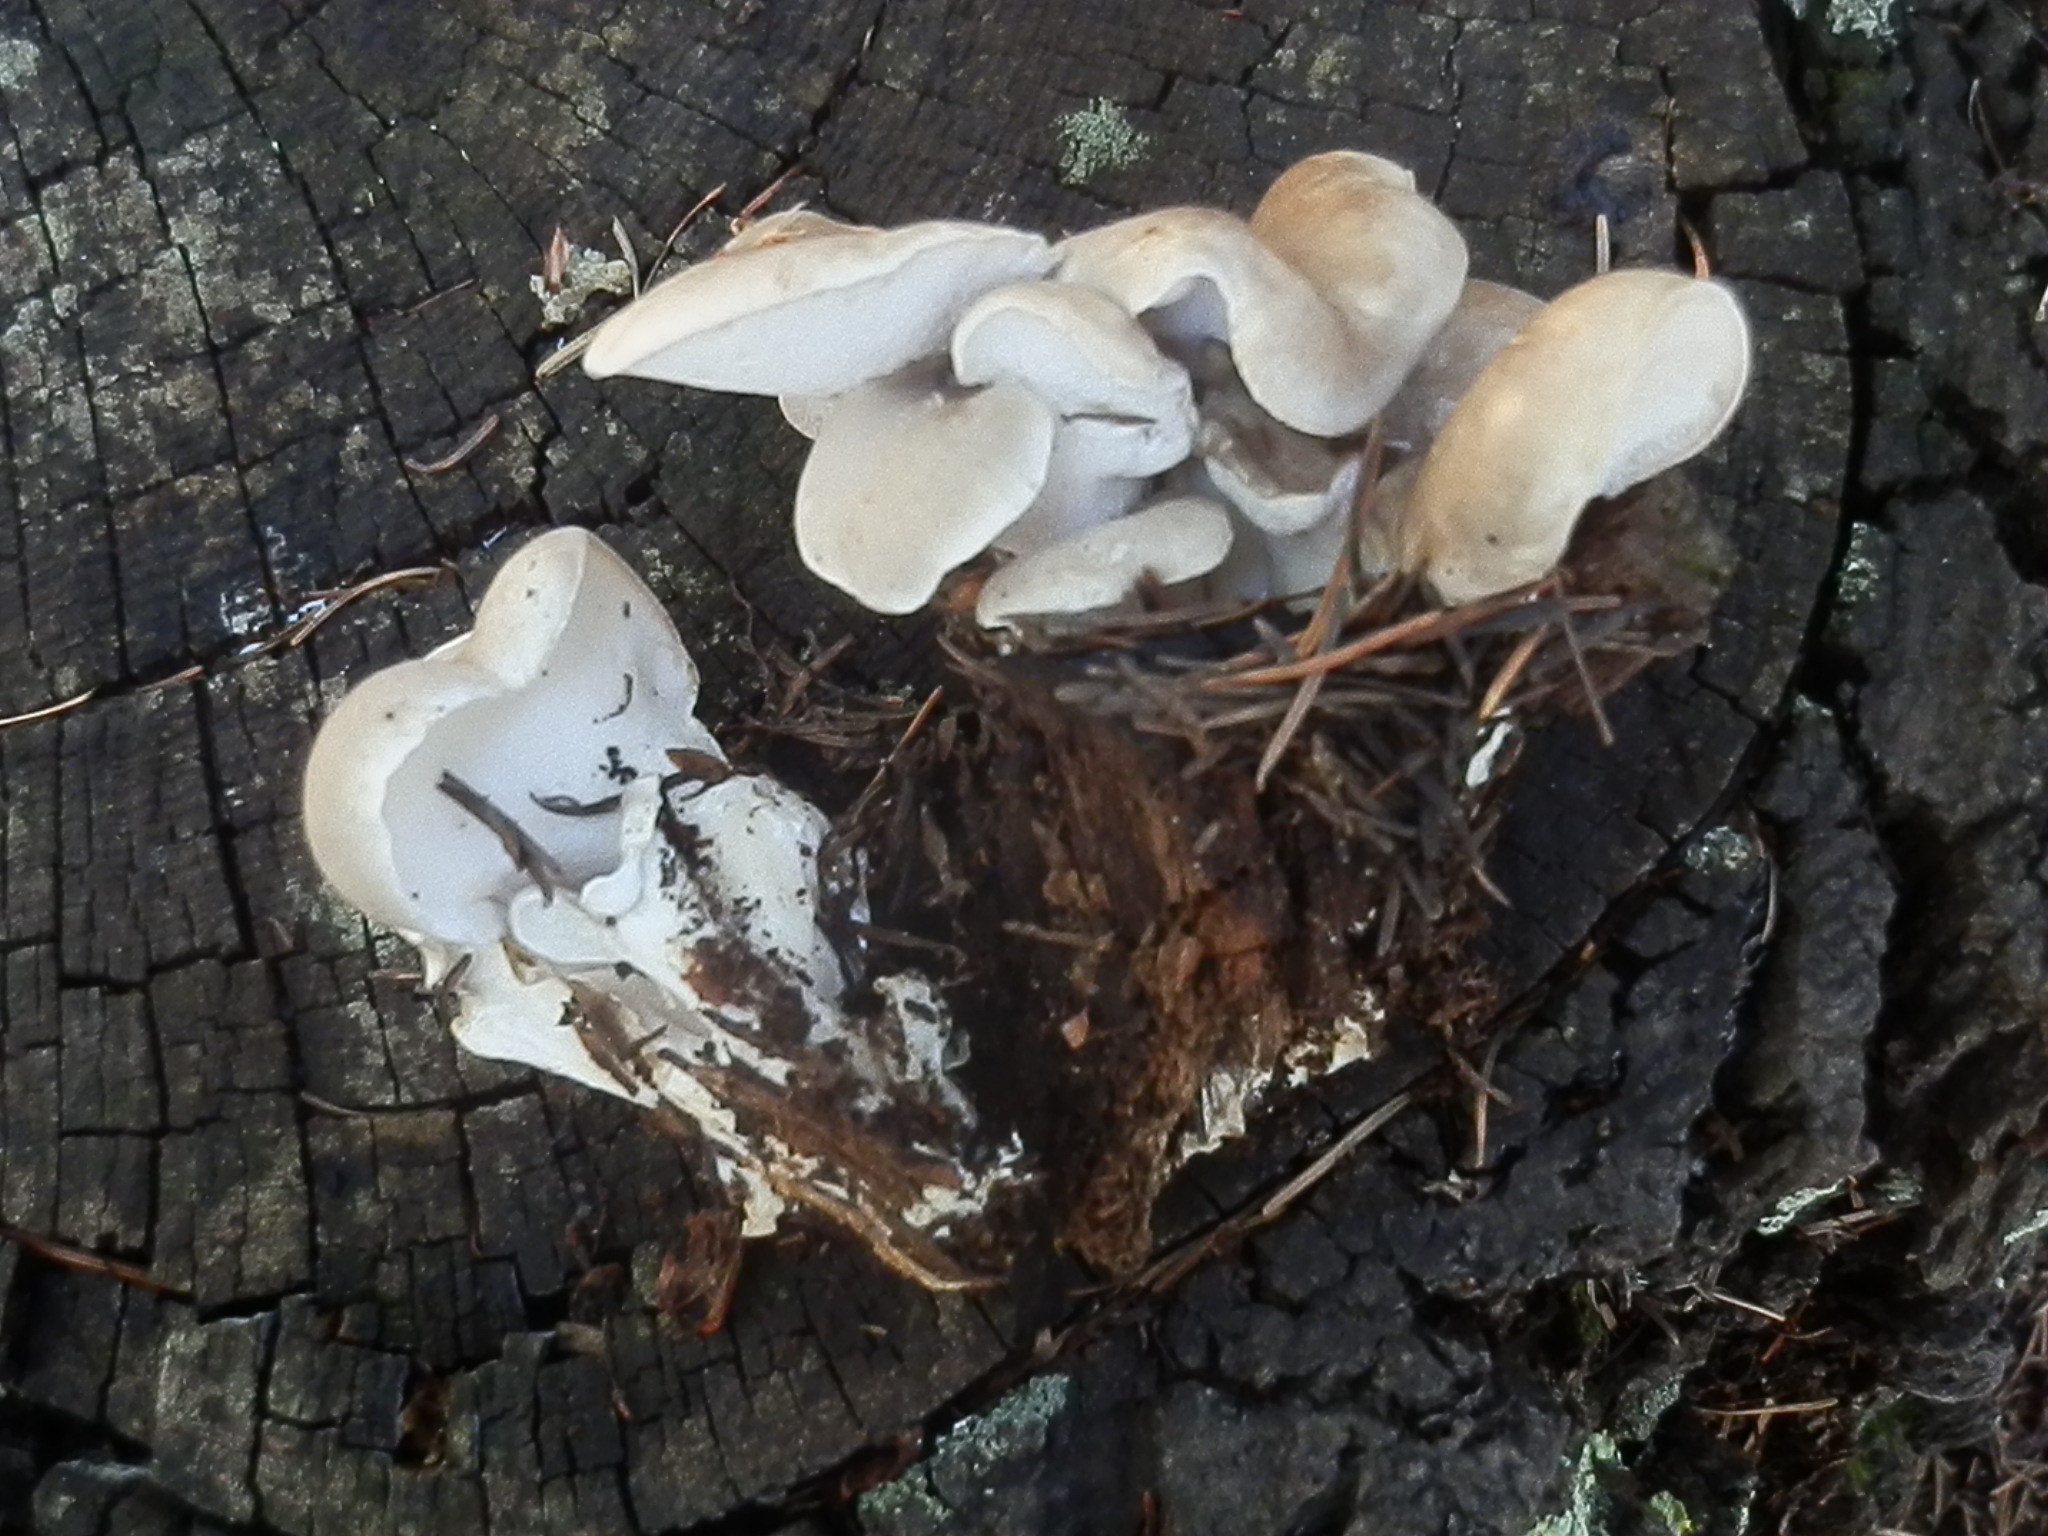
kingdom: Fungi
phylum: Basidiomycota
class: Agaricomycetes
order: Polyporales
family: Dacryobolaceae
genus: Osteina
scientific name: Osteina obducta
